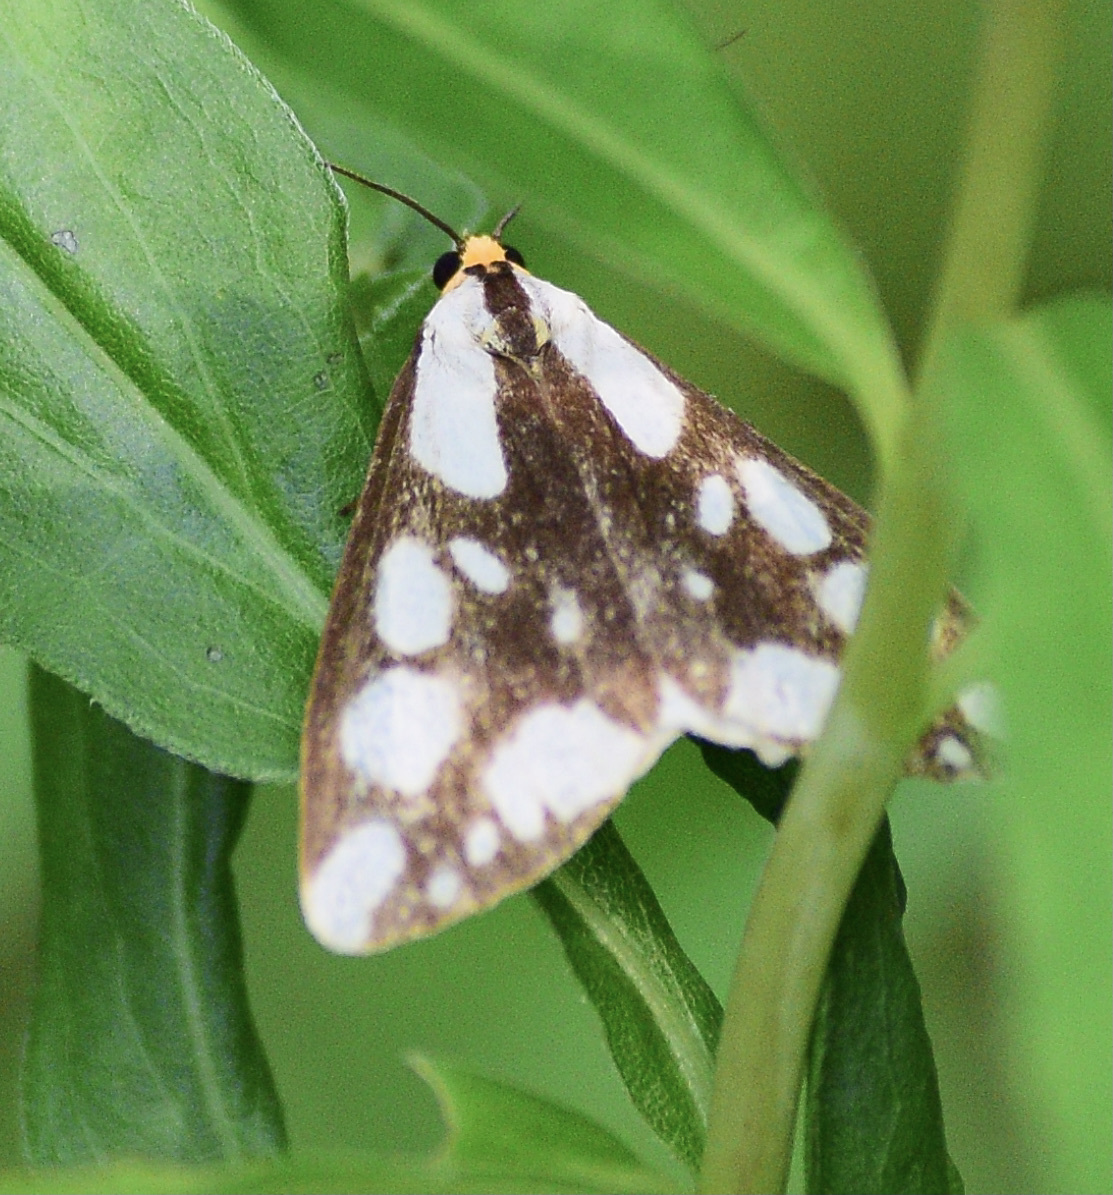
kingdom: Animalia
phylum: Arthropoda
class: Insecta
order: Lepidoptera
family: Erebidae
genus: Haploa
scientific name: Haploa confusa
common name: Confused haploa moth
